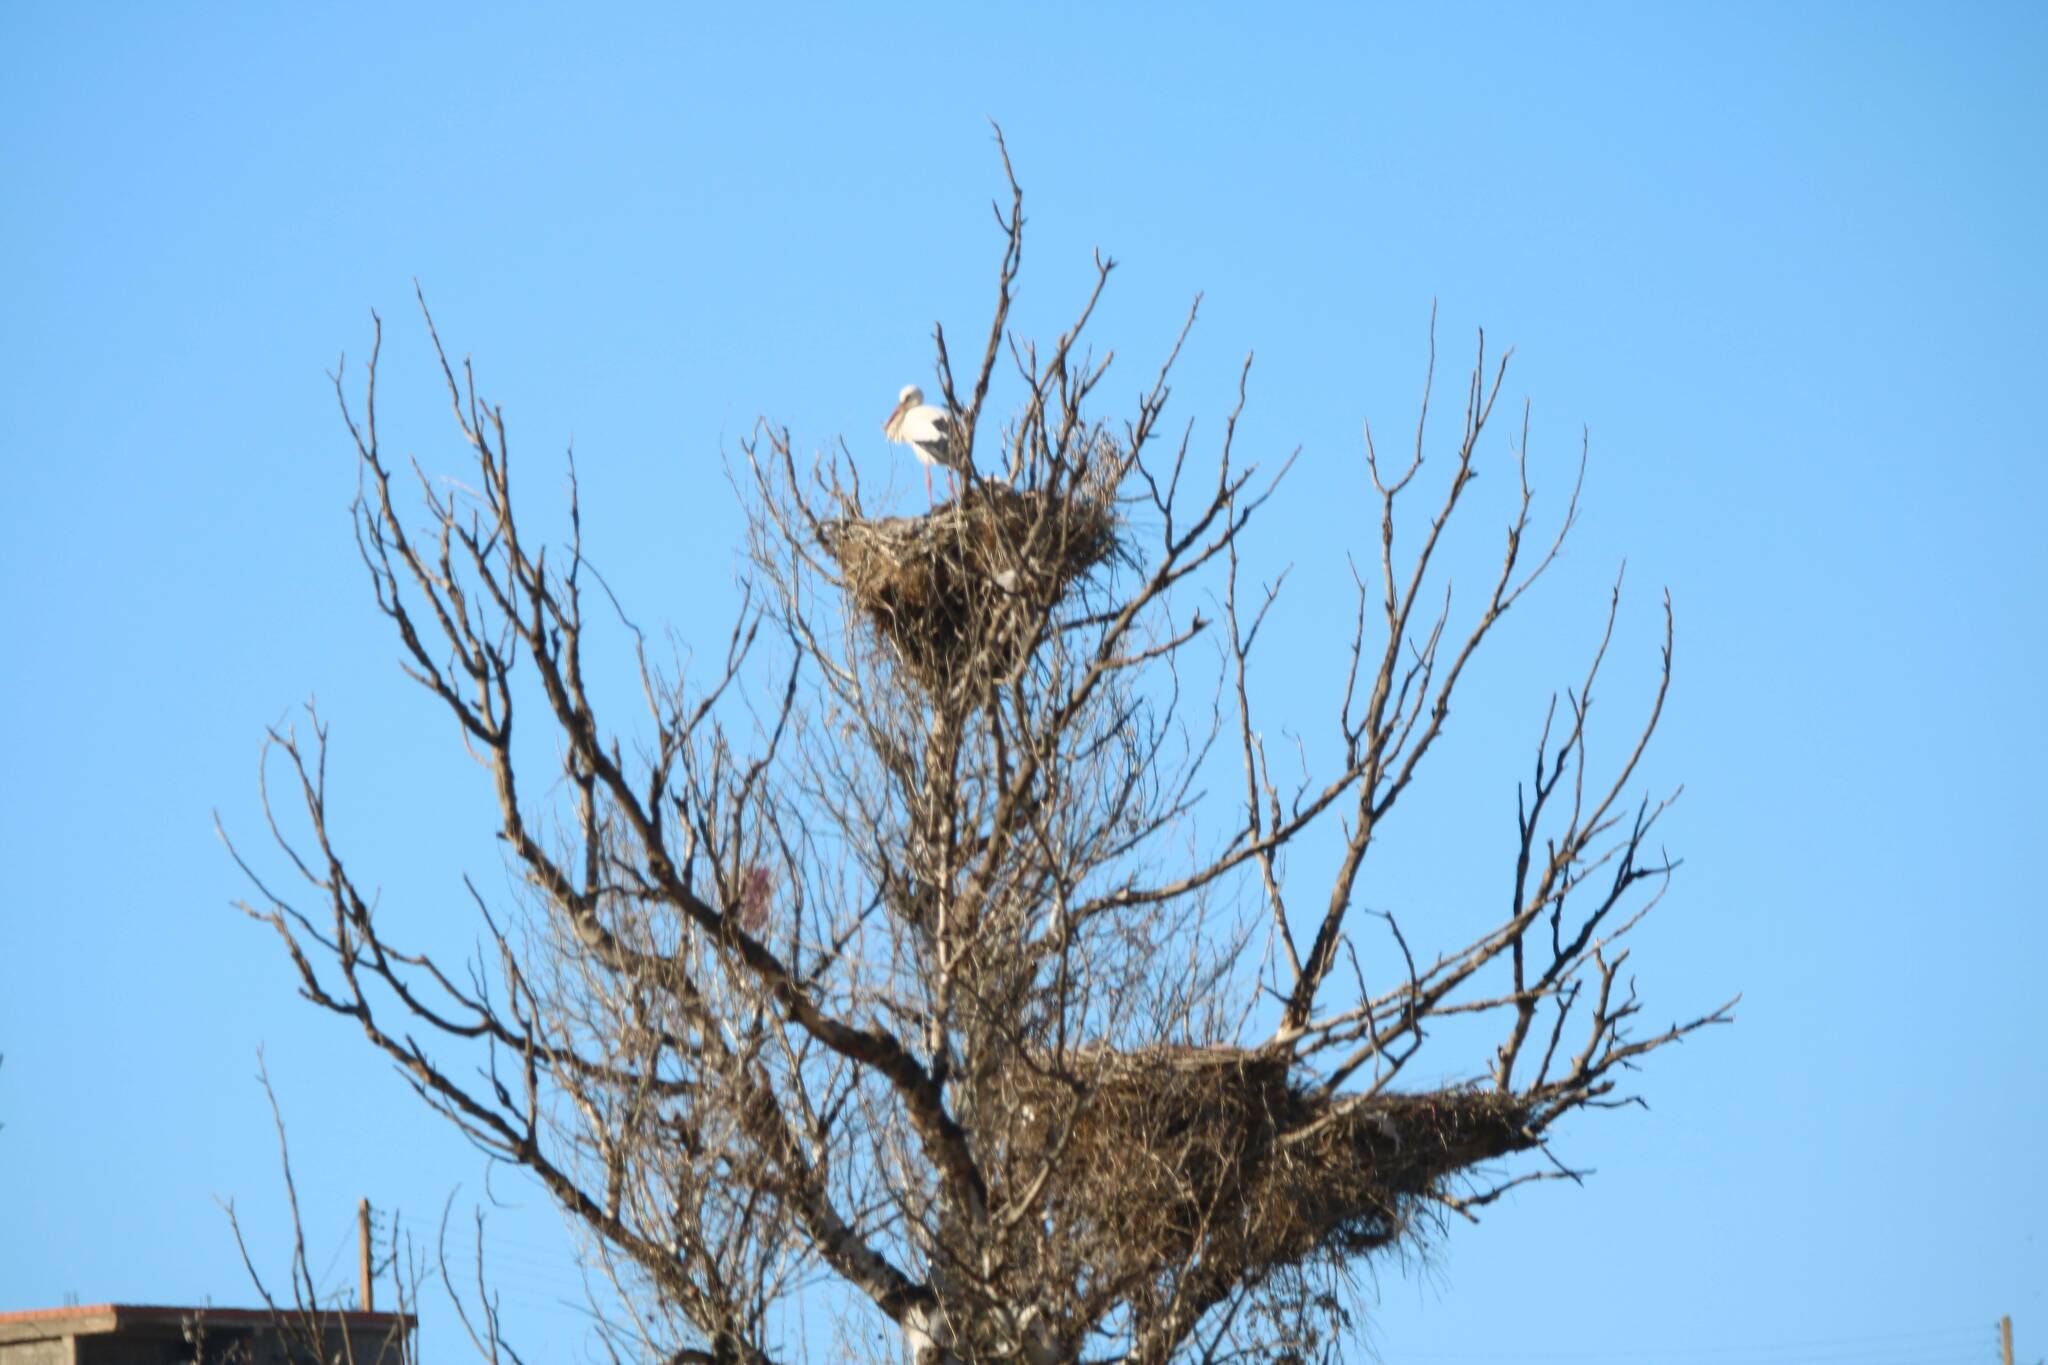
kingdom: Animalia
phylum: Chordata
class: Aves
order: Ciconiiformes
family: Ciconiidae
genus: Ciconia
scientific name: Ciconia ciconia
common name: White stork
